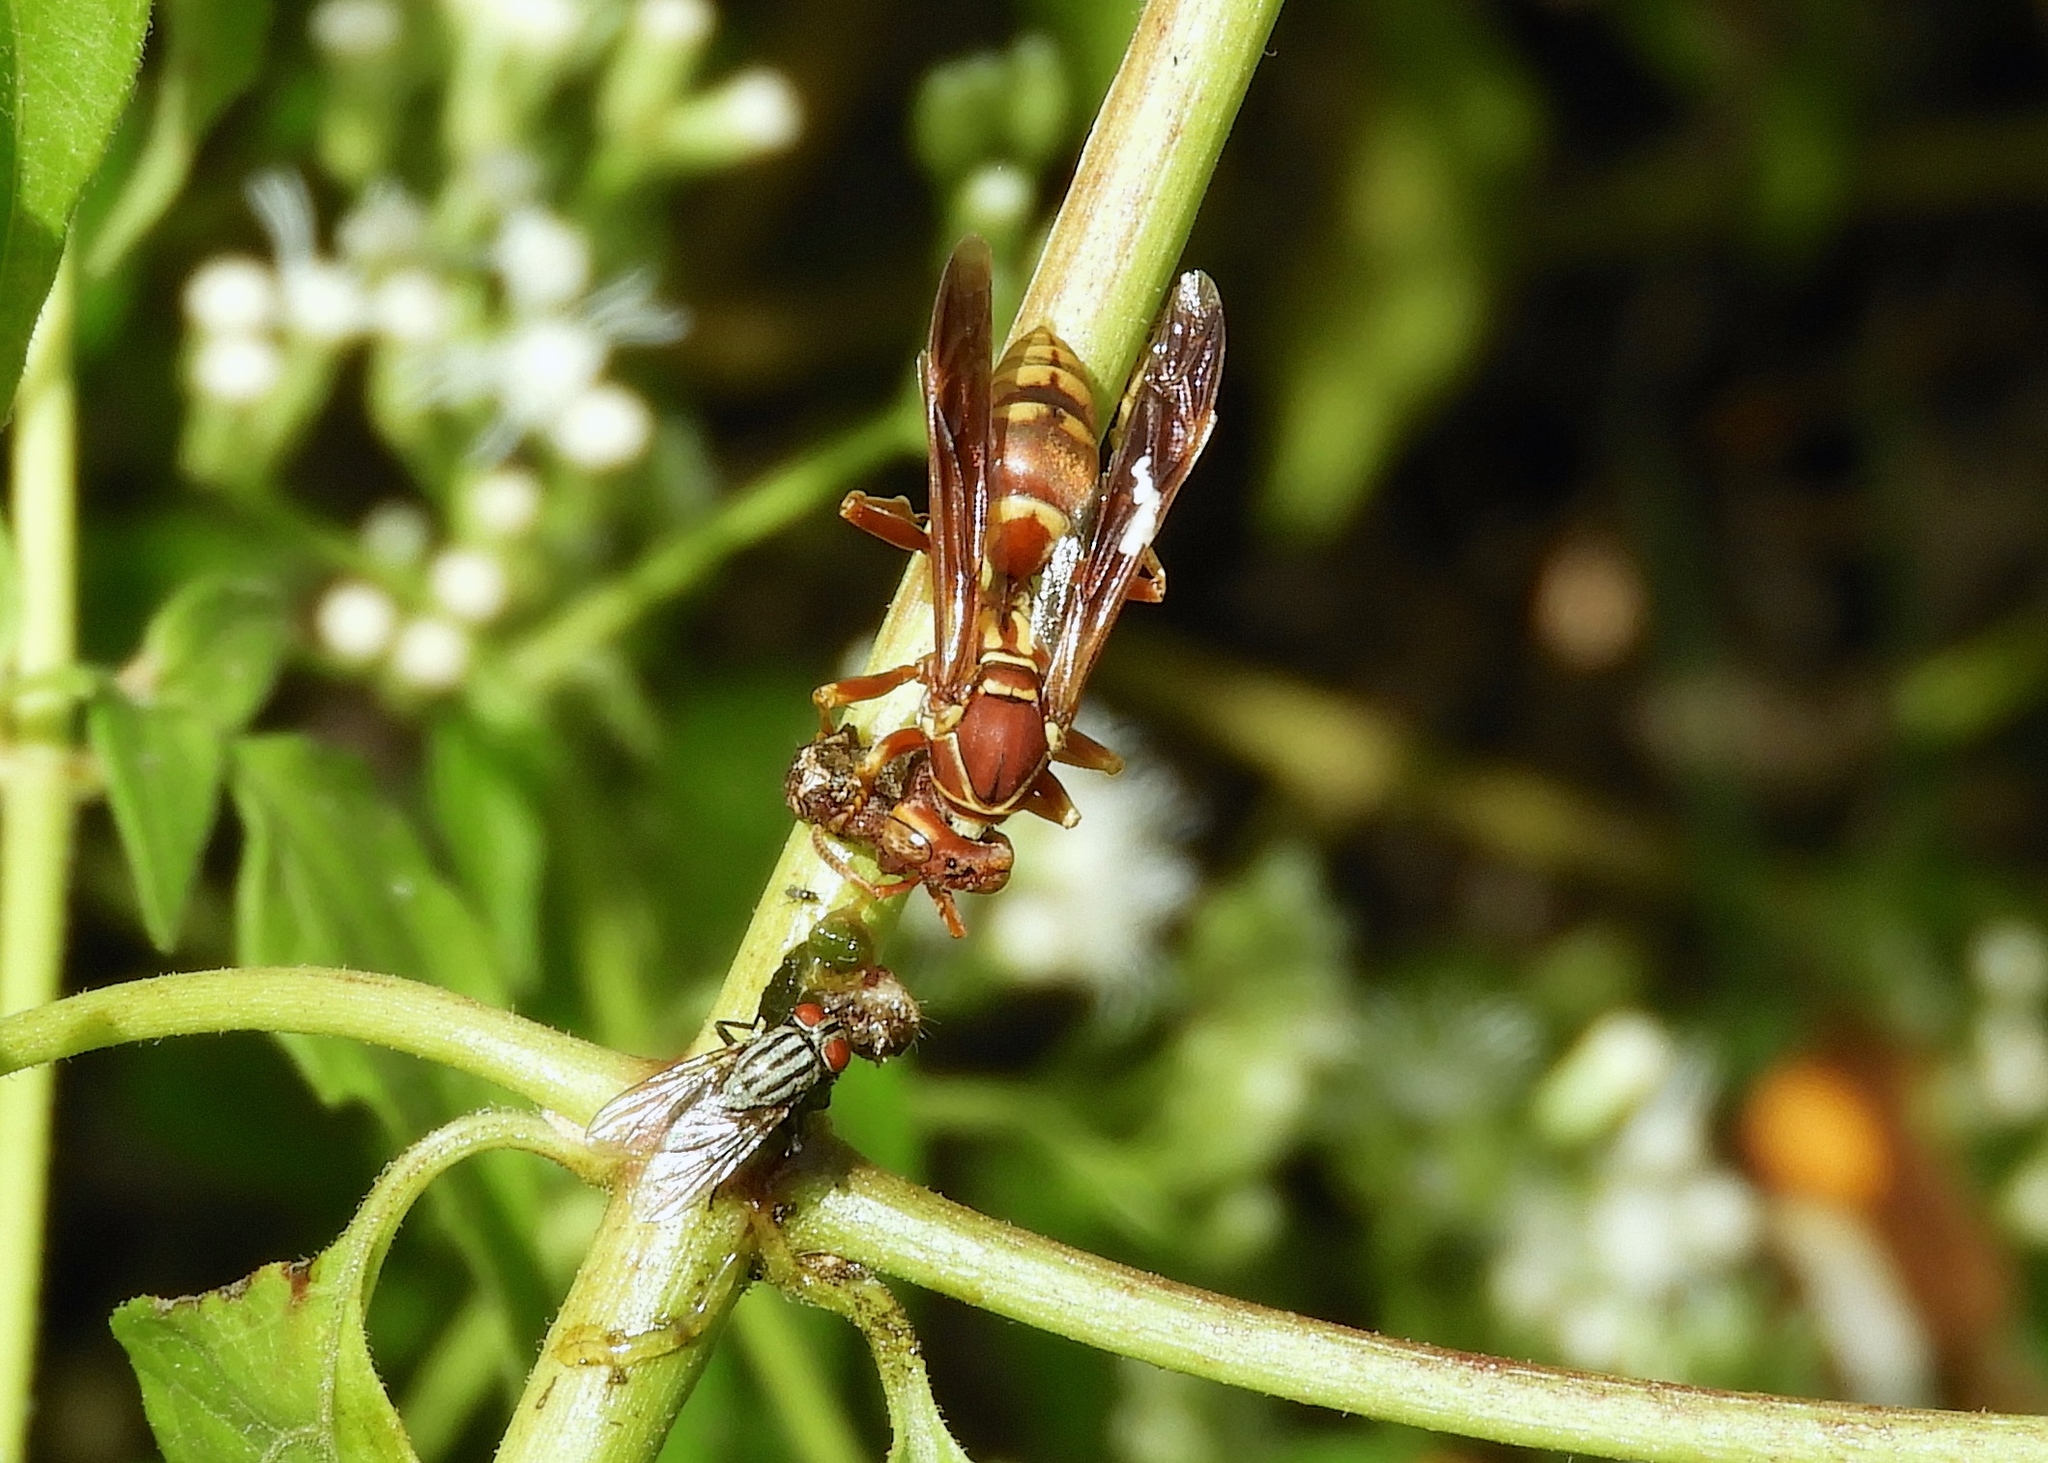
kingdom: Animalia
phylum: Arthropoda
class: Insecta
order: Hymenoptera
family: Eumenidae
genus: Polistes
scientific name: Polistes dorsalis
